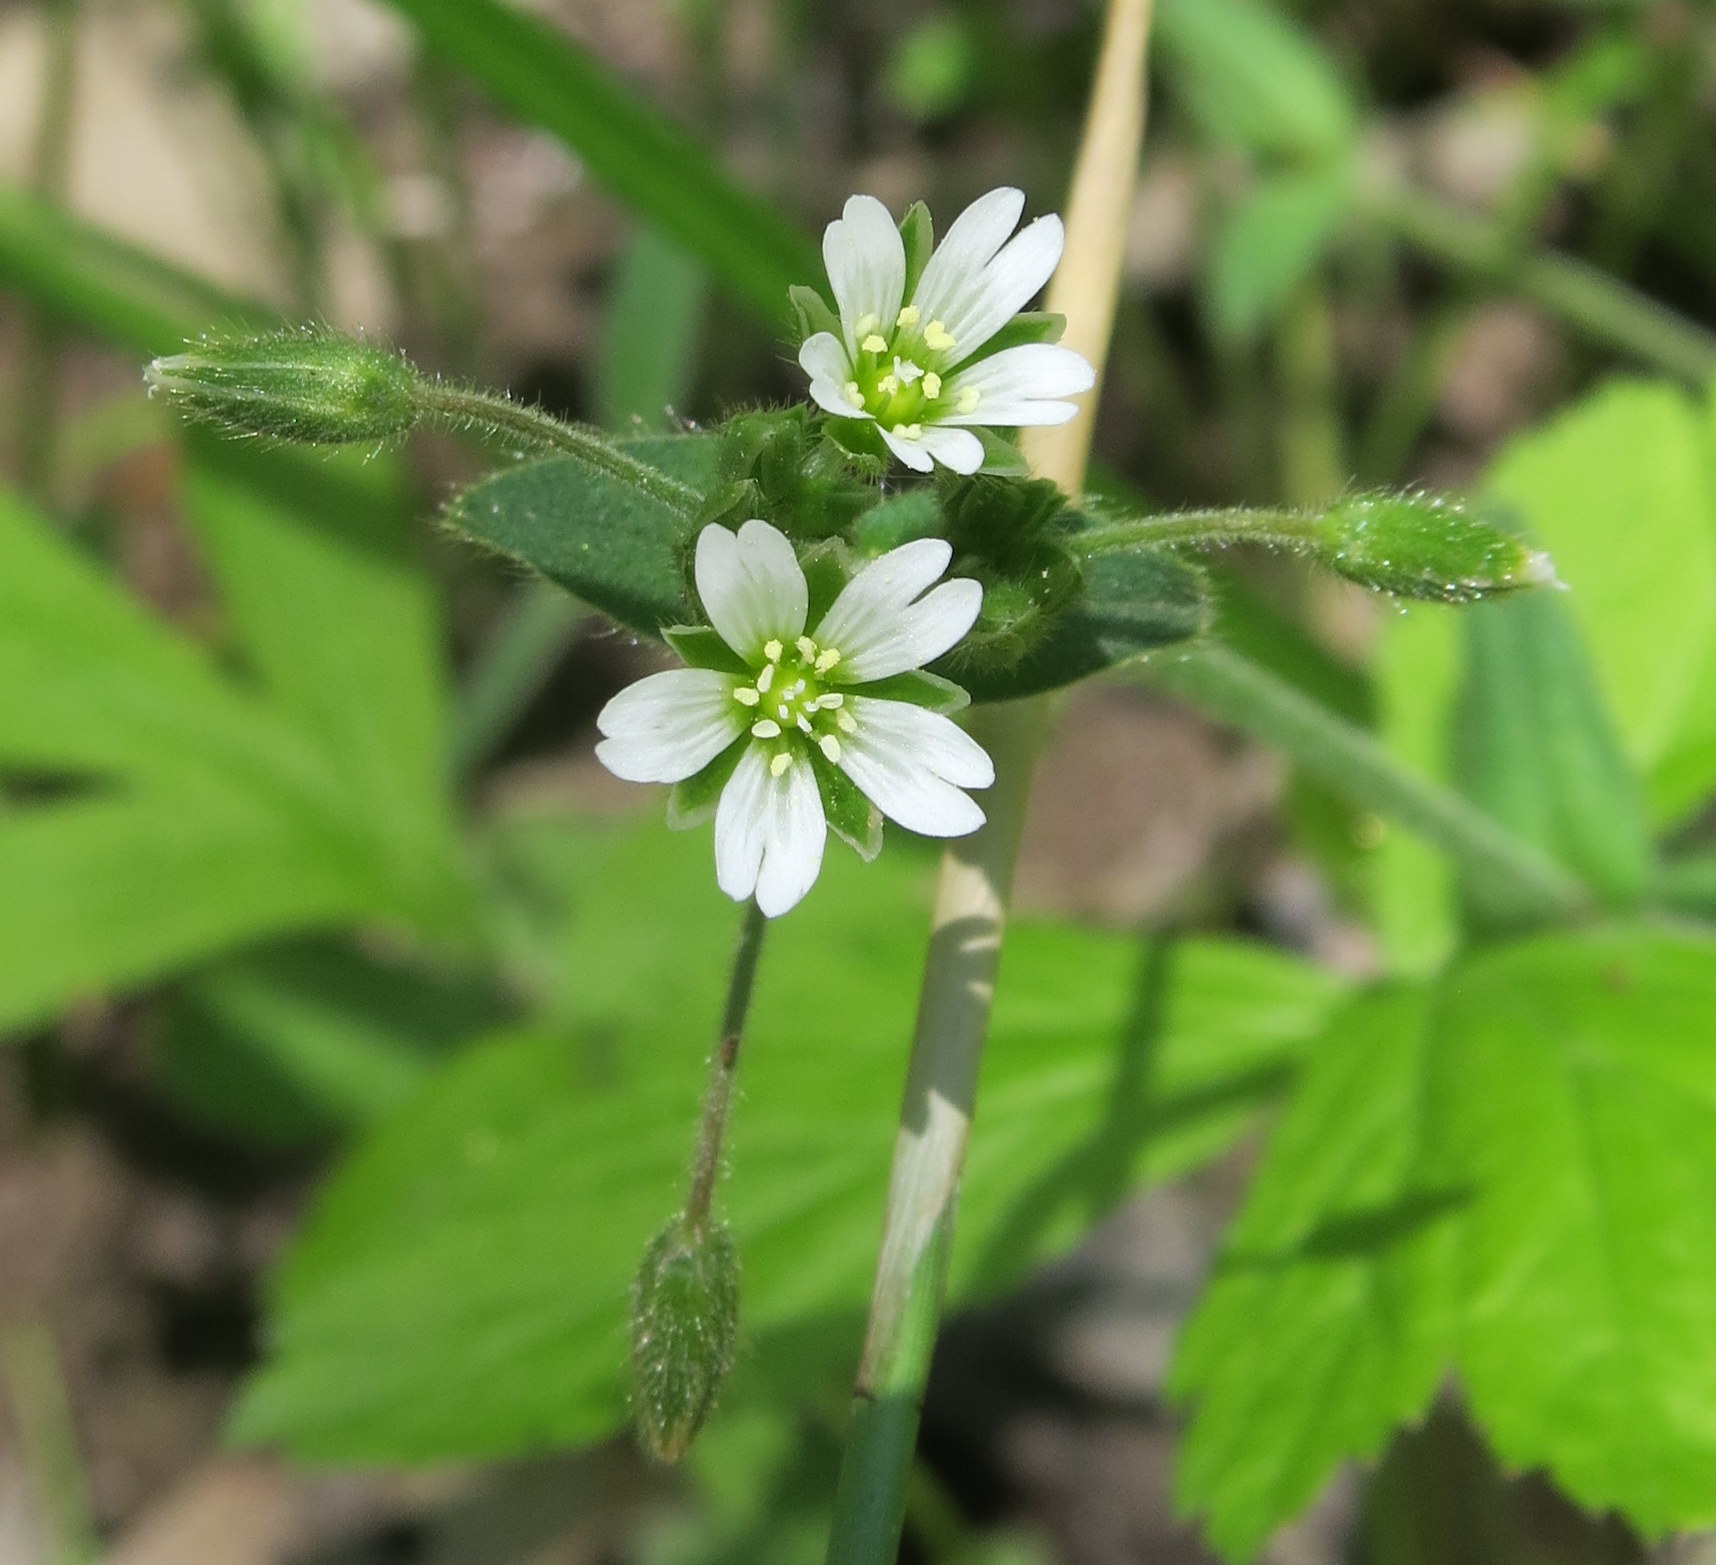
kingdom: Plantae
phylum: Tracheophyta
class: Magnoliopsida
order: Caryophyllales
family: Caryophyllaceae
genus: Cerastium
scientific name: Cerastium fontanum
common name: Common mouse-ear
